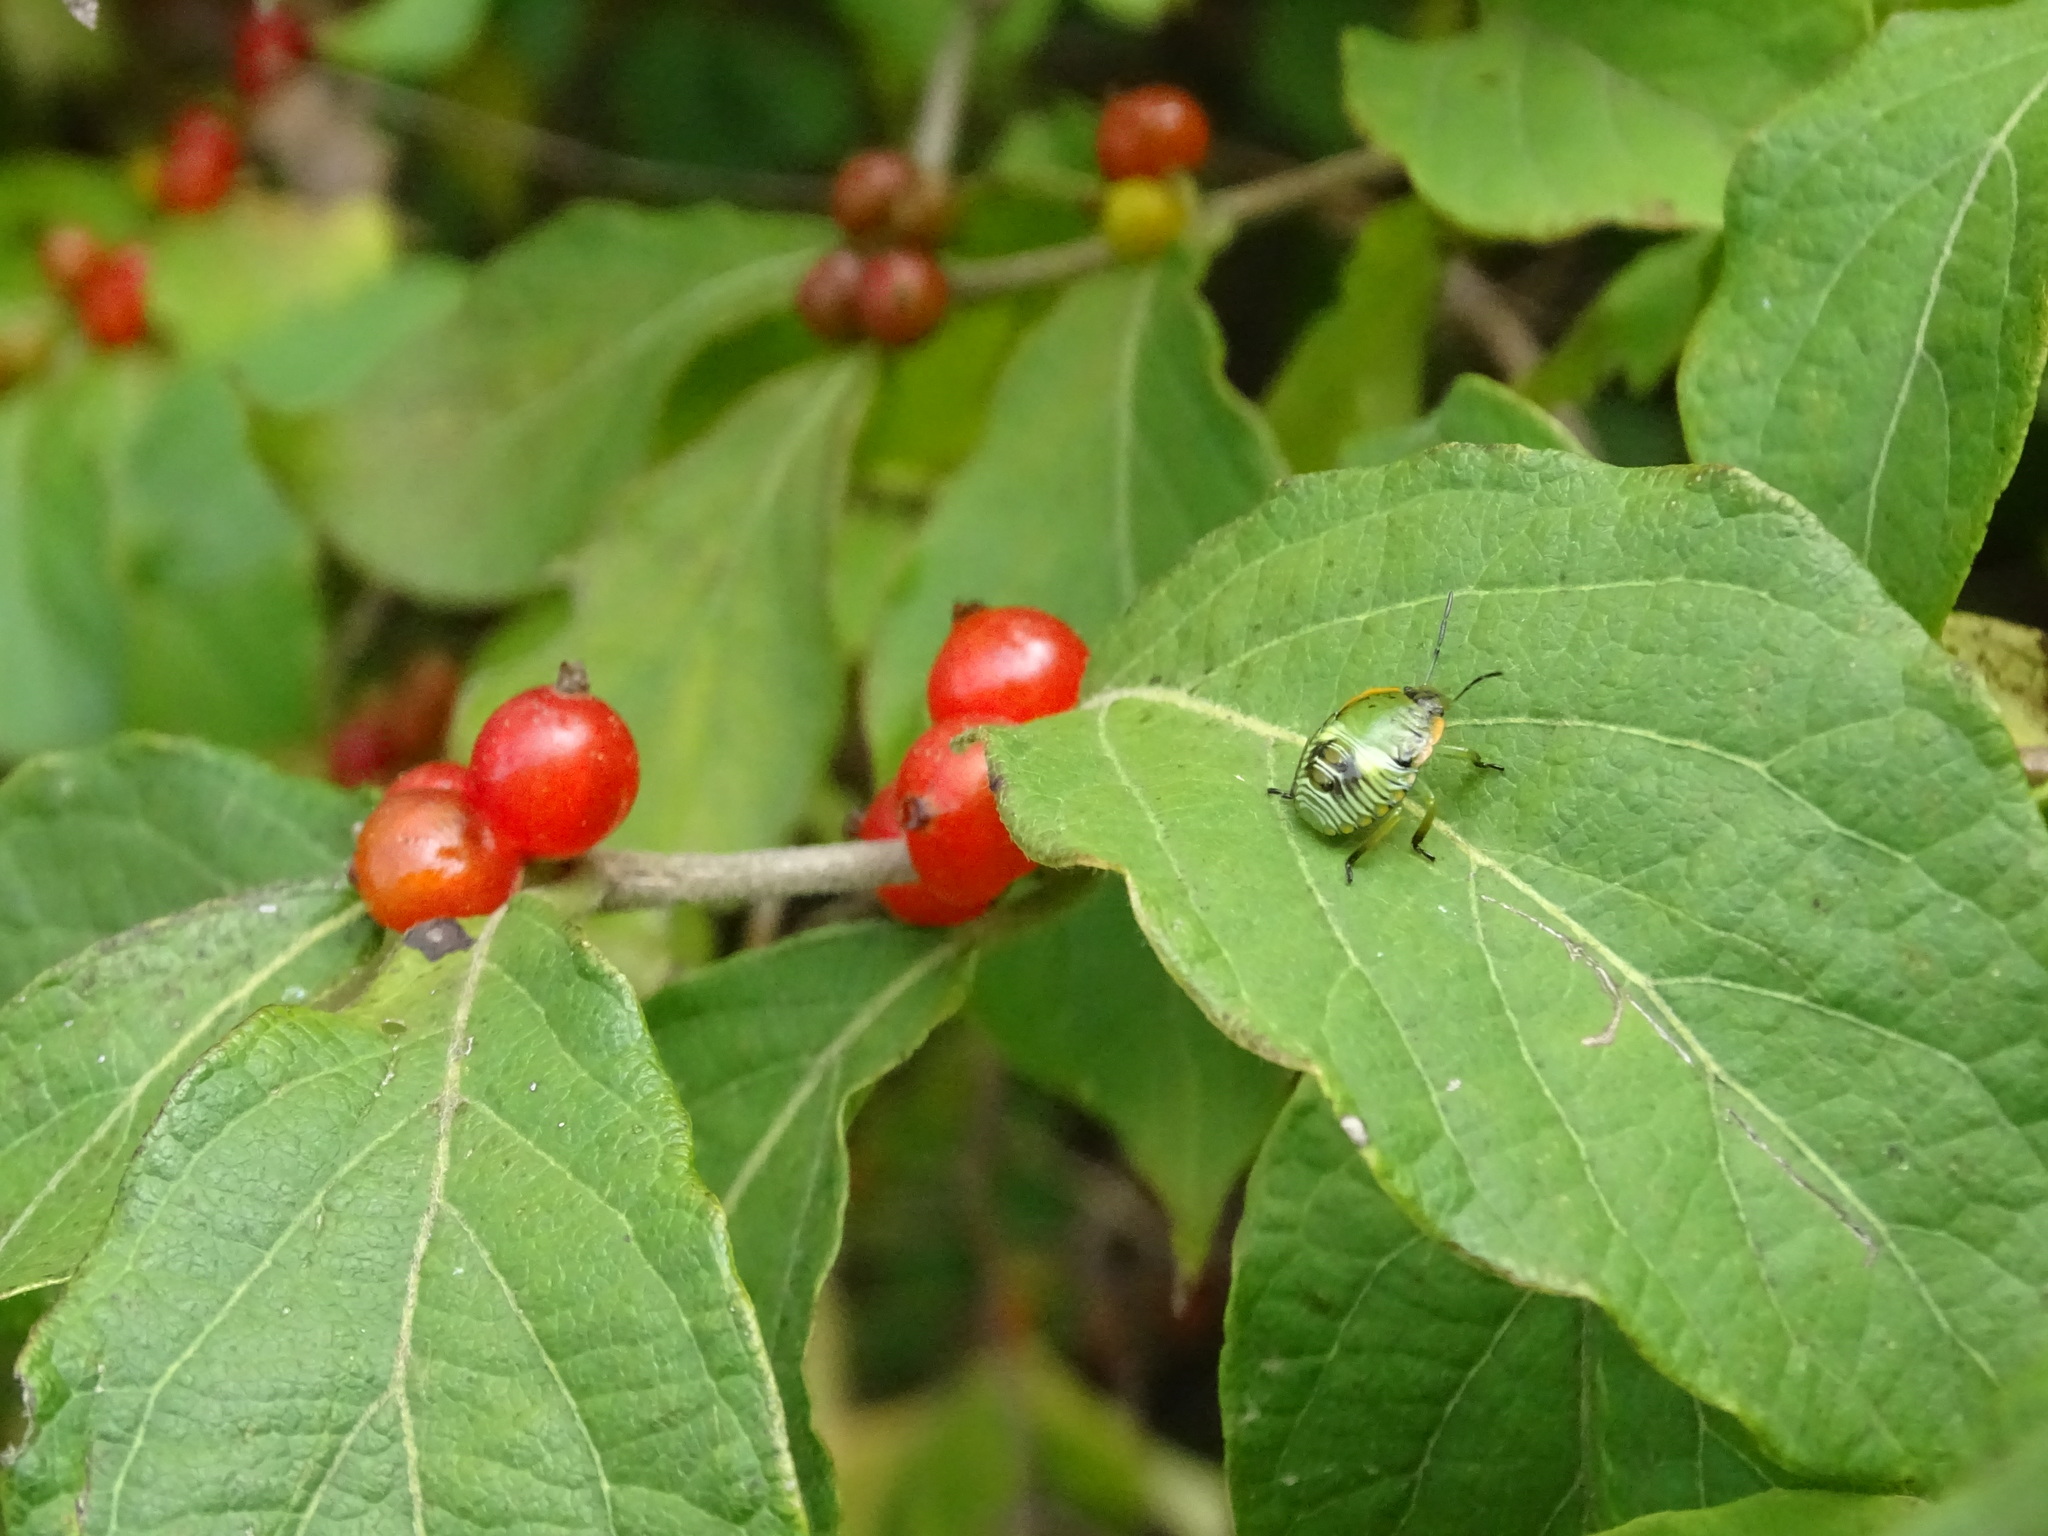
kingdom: Animalia
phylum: Arthropoda
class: Insecta
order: Hemiptera
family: Pentatomidae
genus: Chinavia
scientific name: Chinavia hilaris
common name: Green stink bug
